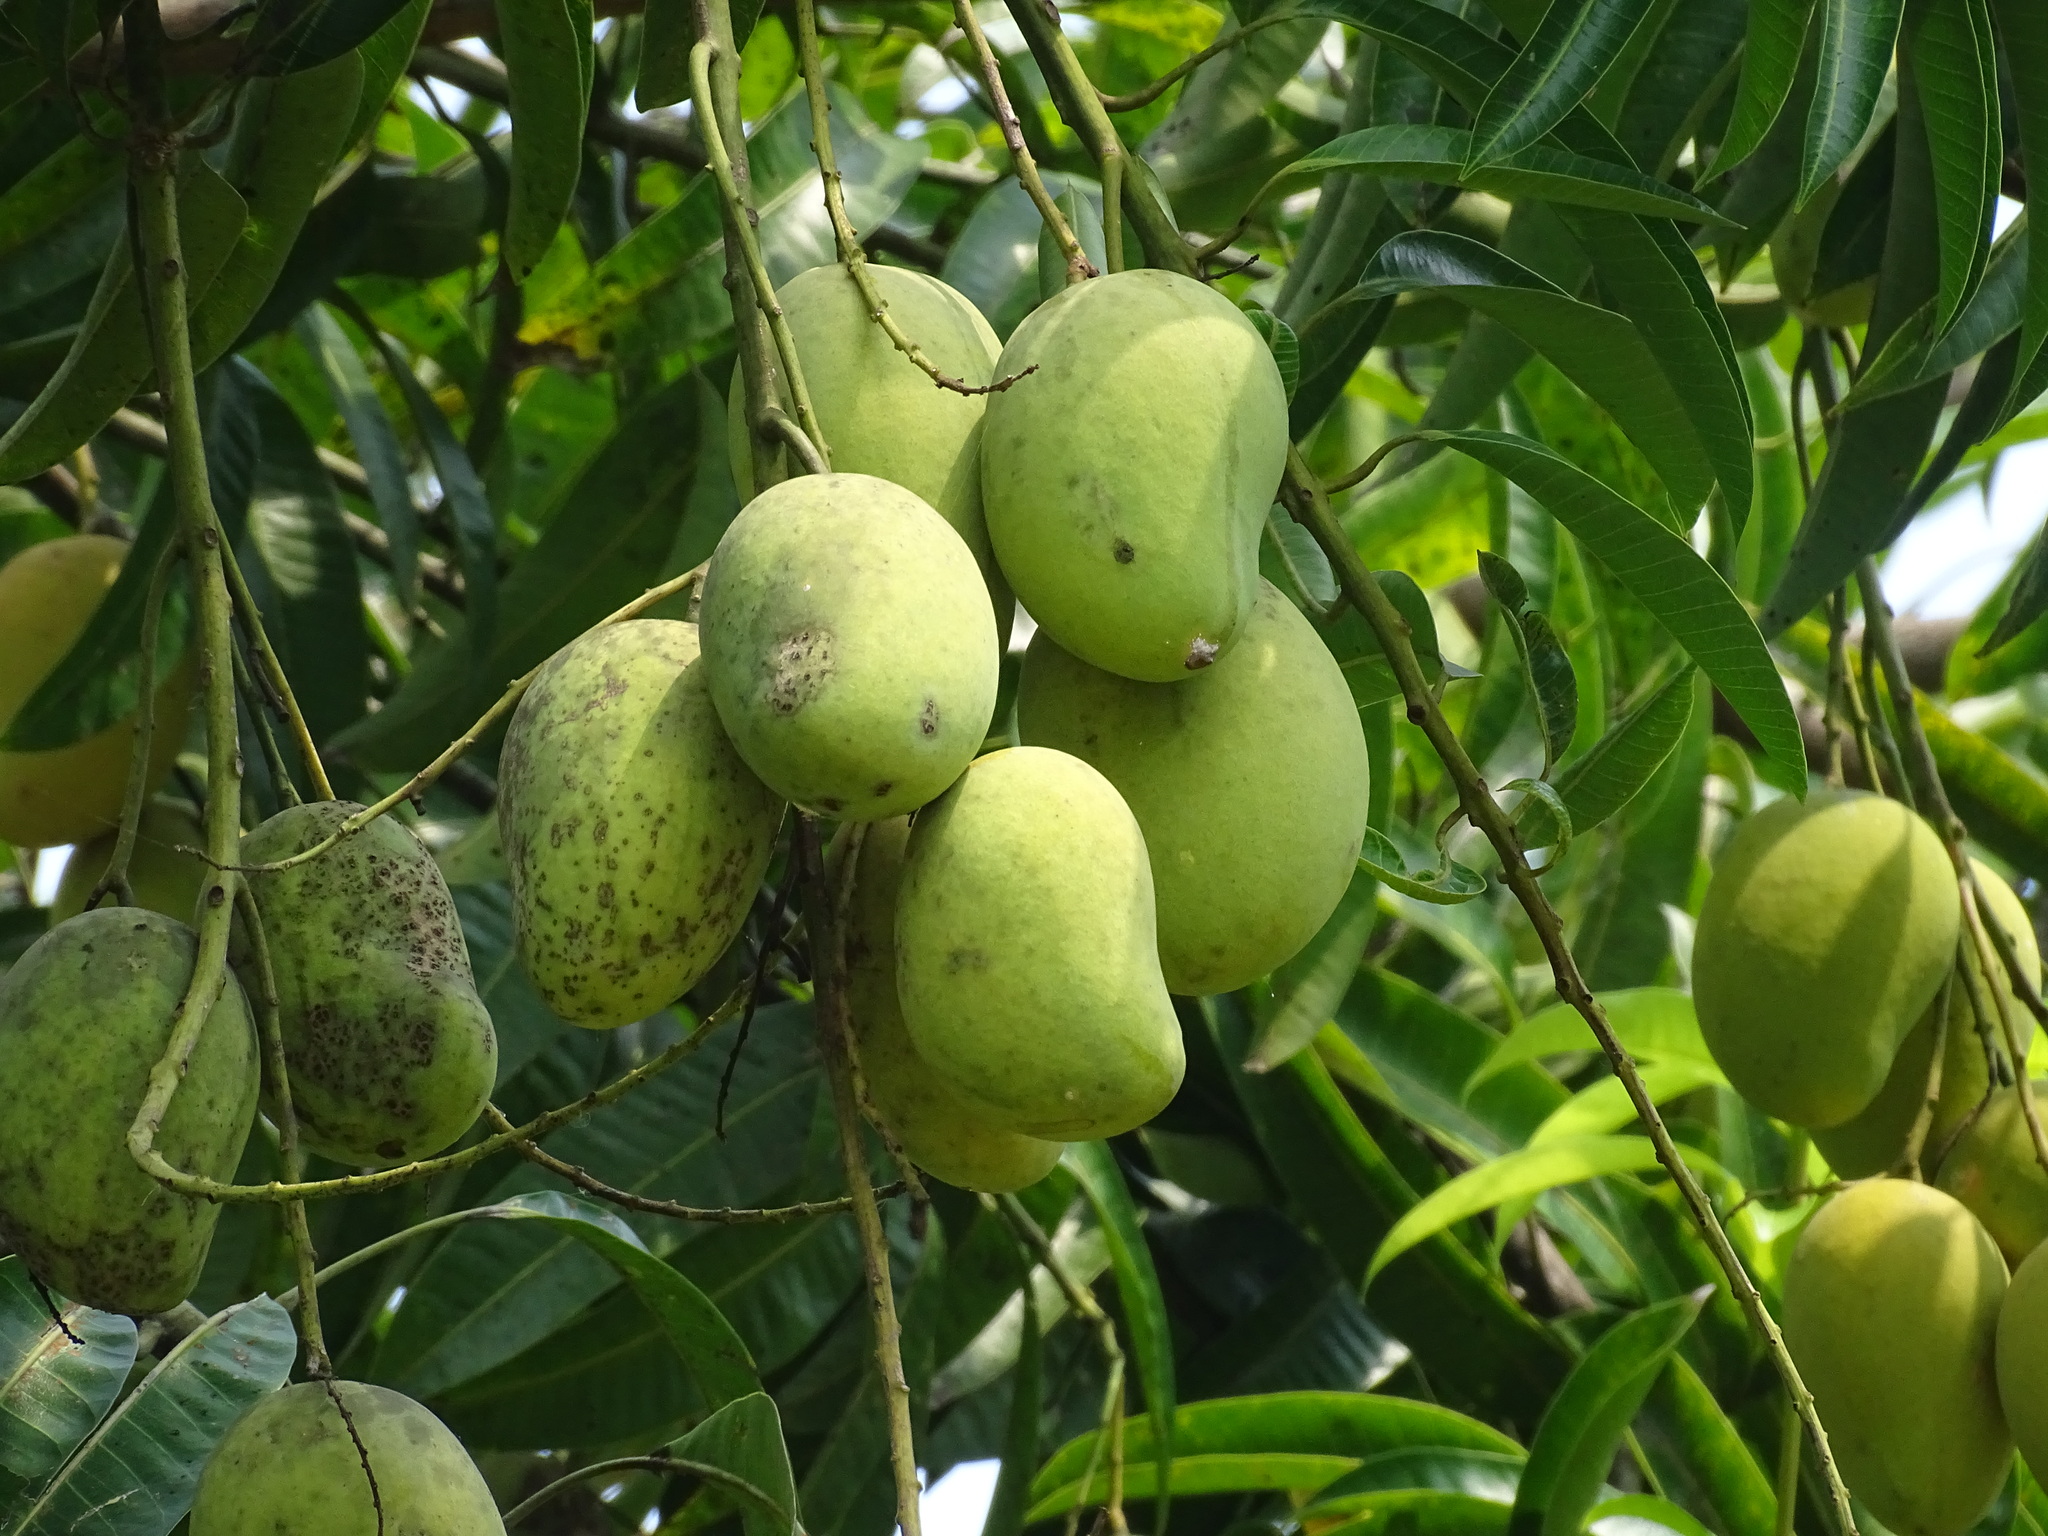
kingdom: Plantae
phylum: Tracheophyta
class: Magnoliopsida
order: Sapindales
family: Anacardiaceae
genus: Mangifera
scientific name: Mangifera indica
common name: Mango
